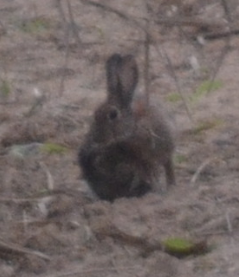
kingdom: Animalia
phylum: Chordata
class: Mammalia
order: Lagomorpha
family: Leporidae
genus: Oryctolagus
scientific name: Oryctolagus cuniculus
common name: European rabbit
